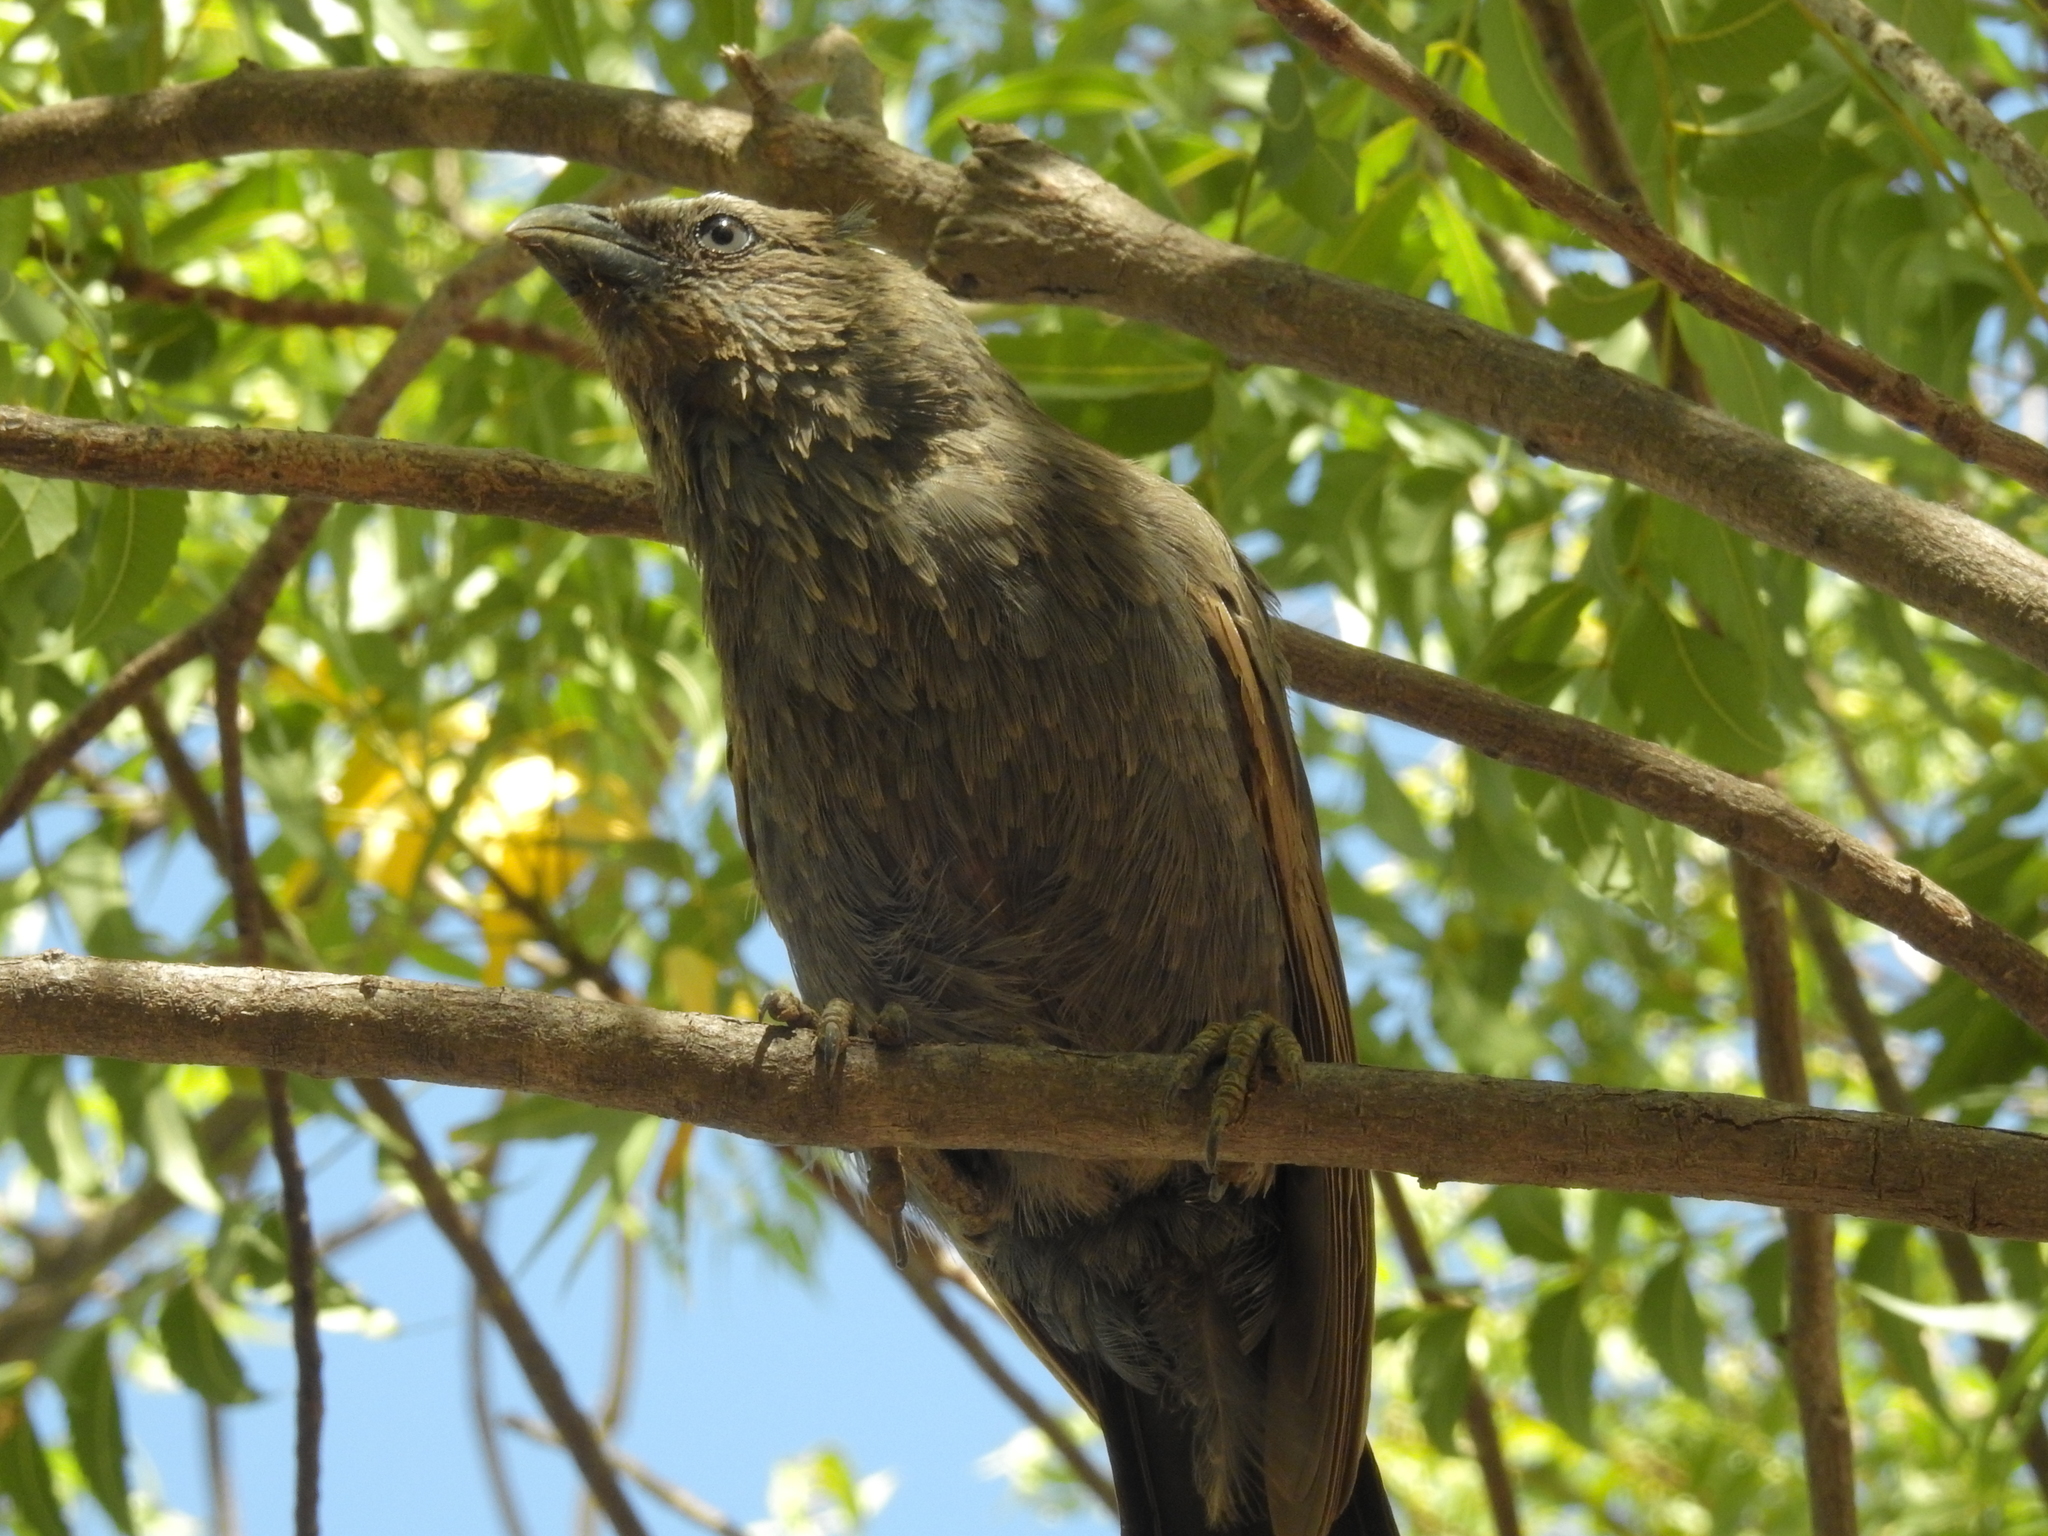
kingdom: Animalia
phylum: Chordata
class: Aves
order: Passeriformes
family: Corcoracidae
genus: Struthidea
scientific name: Struthidea cinerea
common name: Apostlebird
